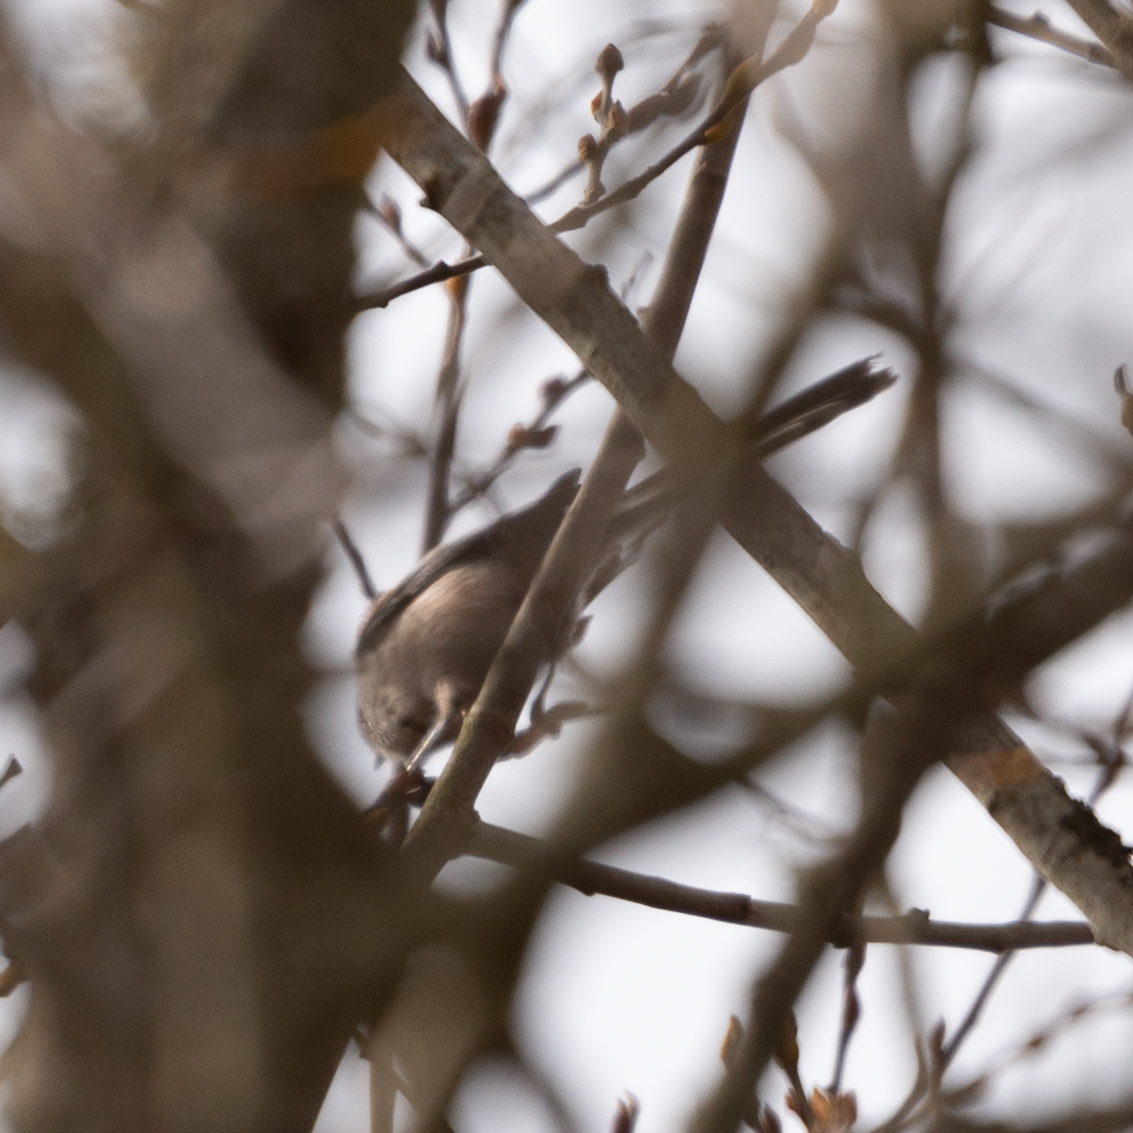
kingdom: Animalia
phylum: Chordata
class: Aves
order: Passeriformes
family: Aegithalidae
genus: Aegithalos
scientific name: Aegithalos caudatus
